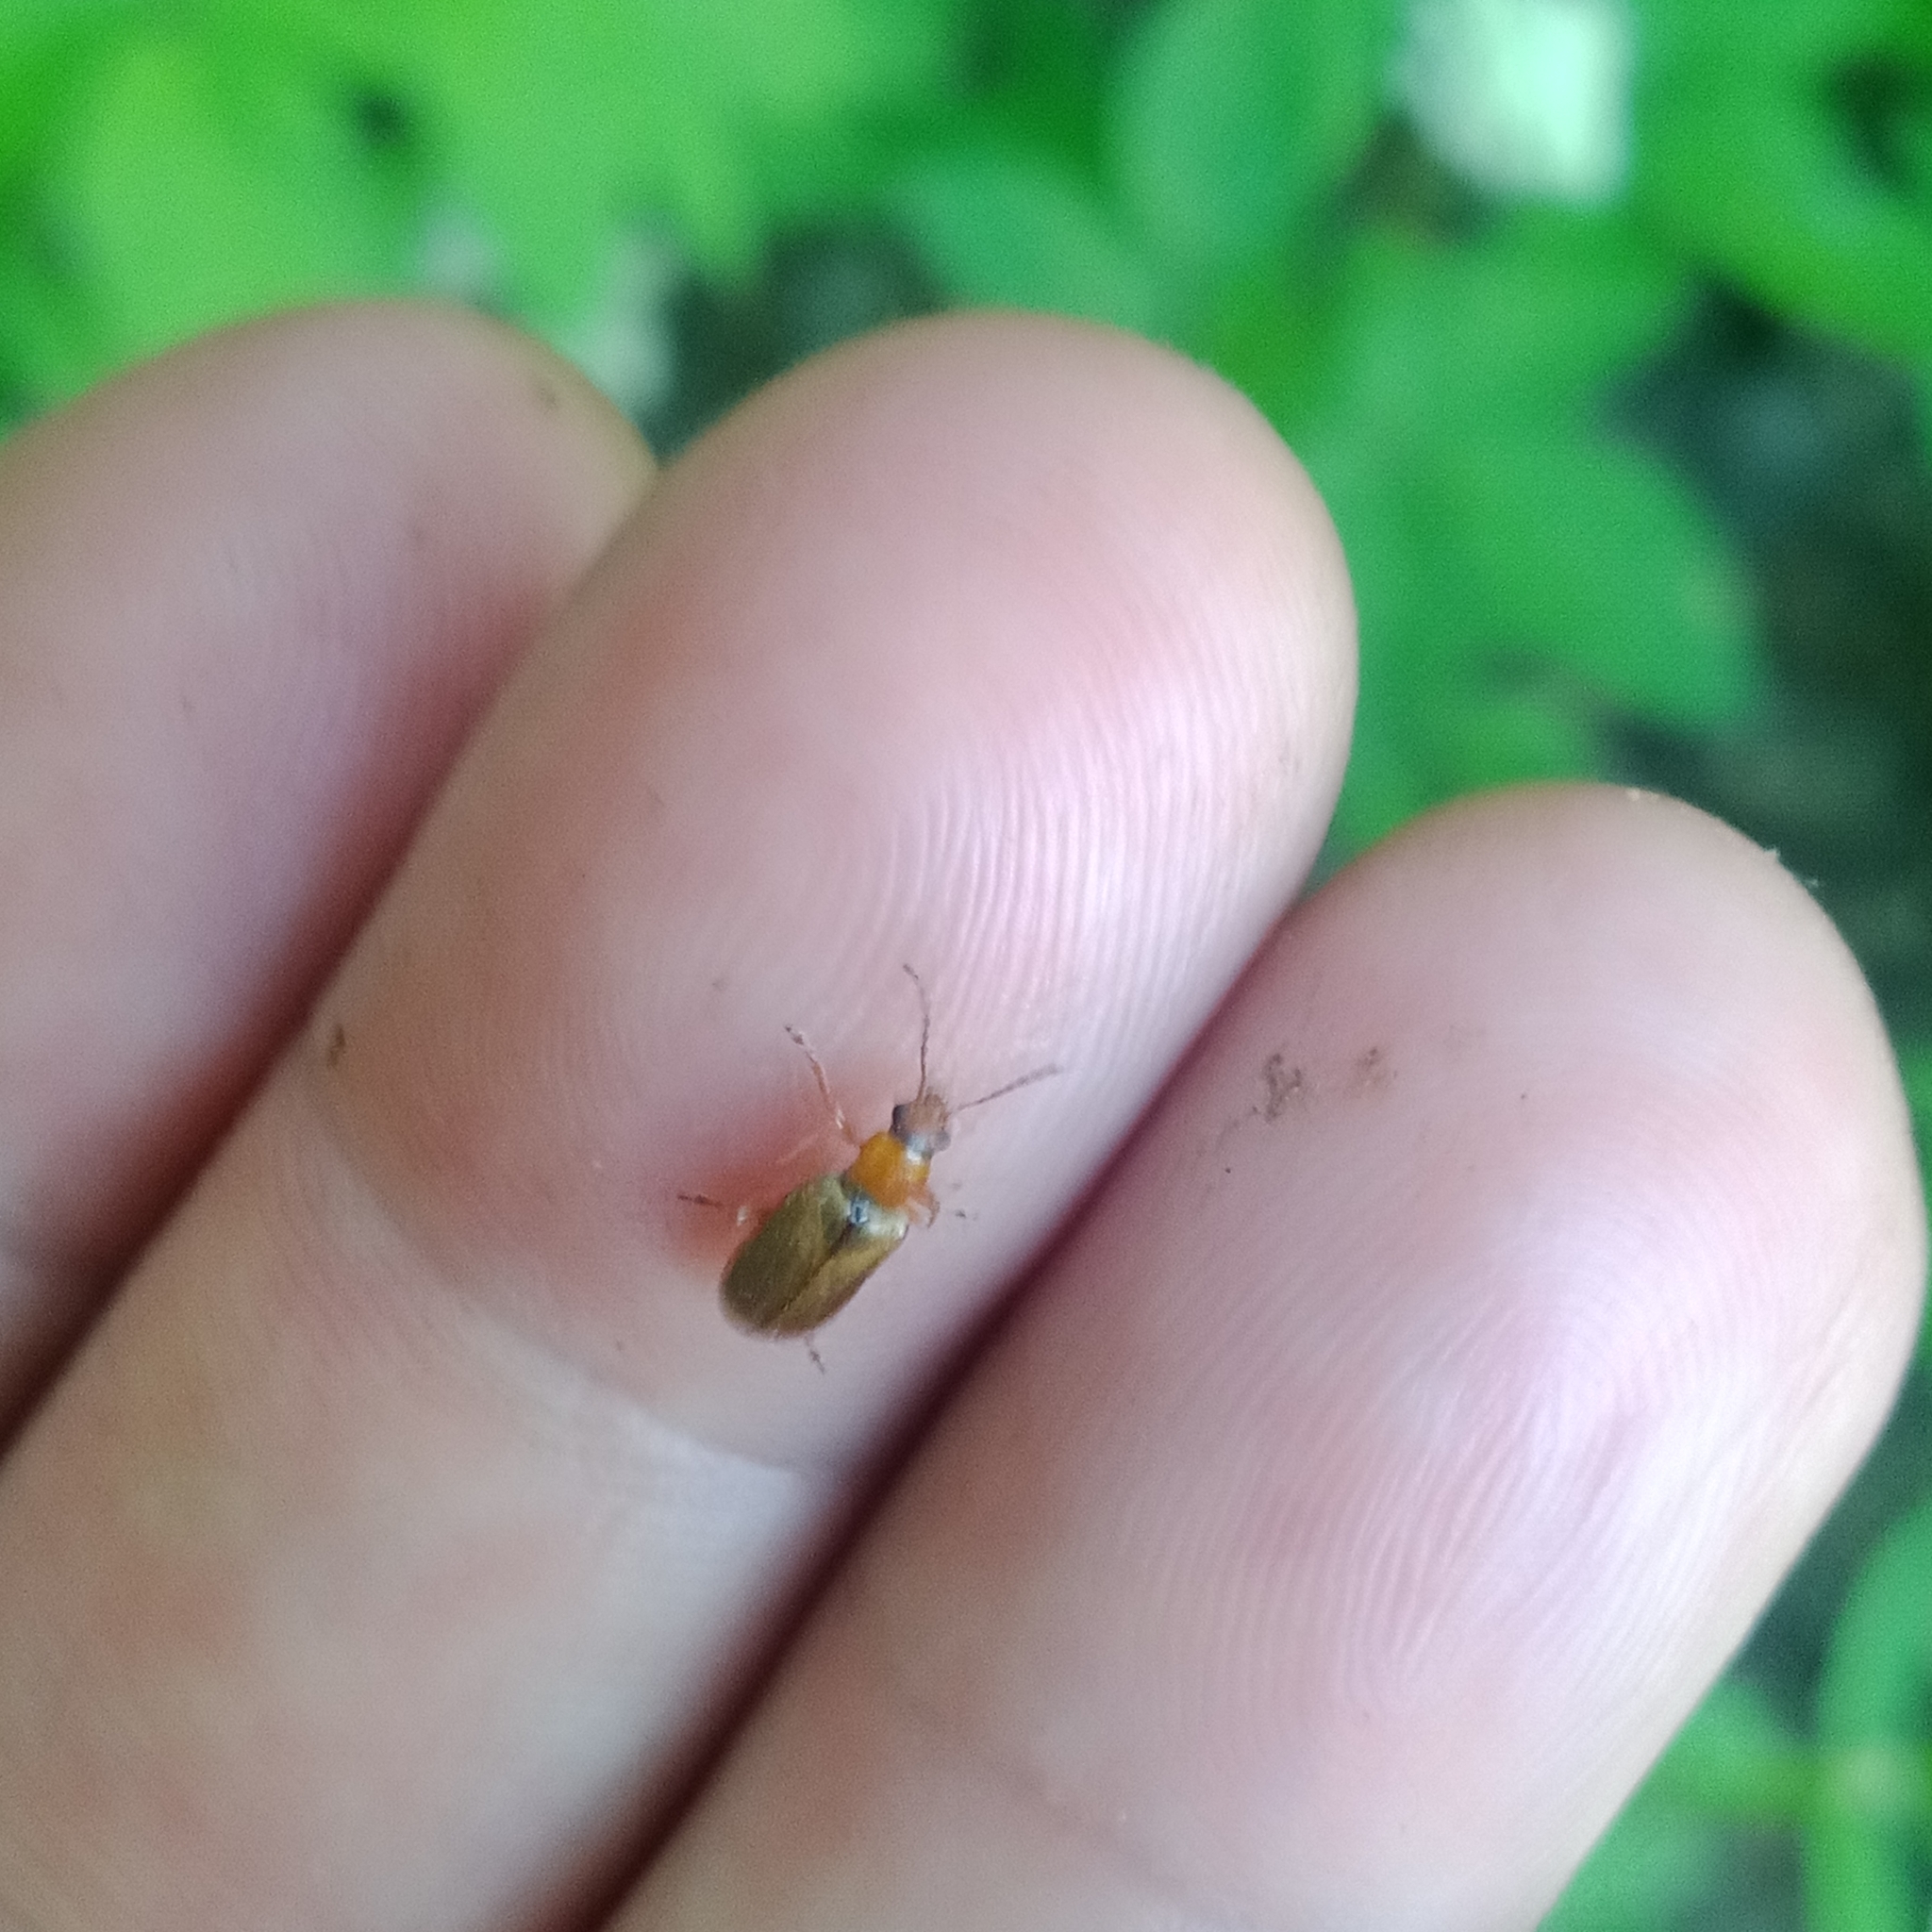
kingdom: Animalia
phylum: Arthropoda
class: Insecta
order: Coleoptera
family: Orsodacnidae
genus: Orsodacne
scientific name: Orsodacne cerasi
